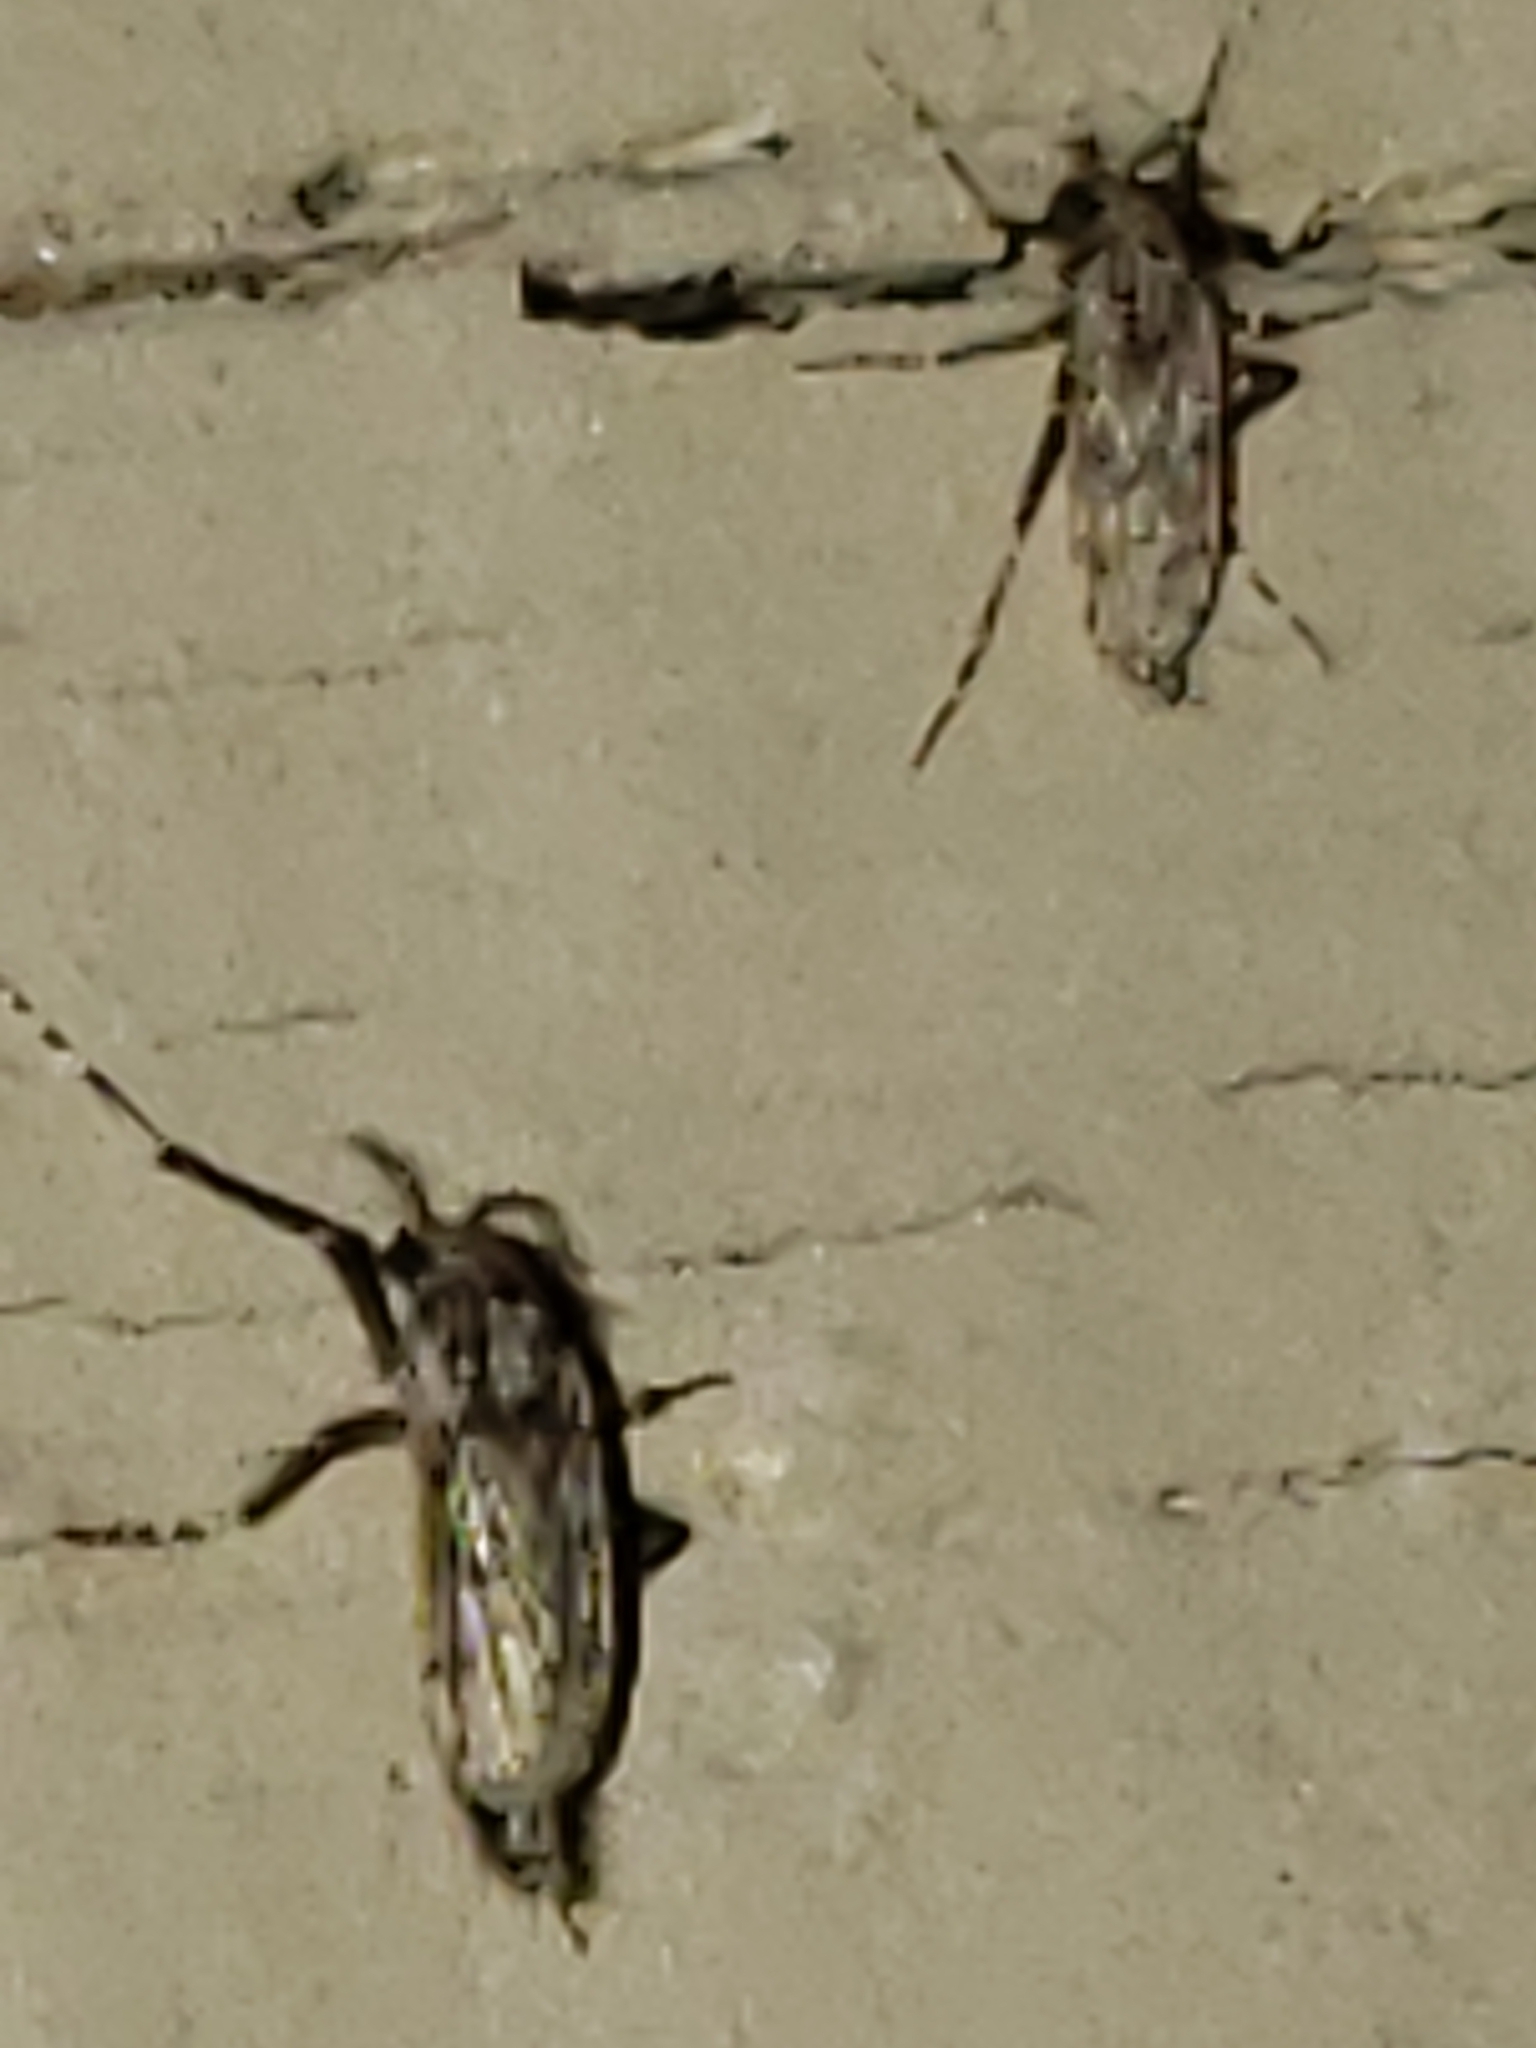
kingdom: Animalia
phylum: Arthropoda
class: Insecta
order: Diptera
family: Chaoboridae
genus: Chaoborus
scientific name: Chaoborus punctipennis
